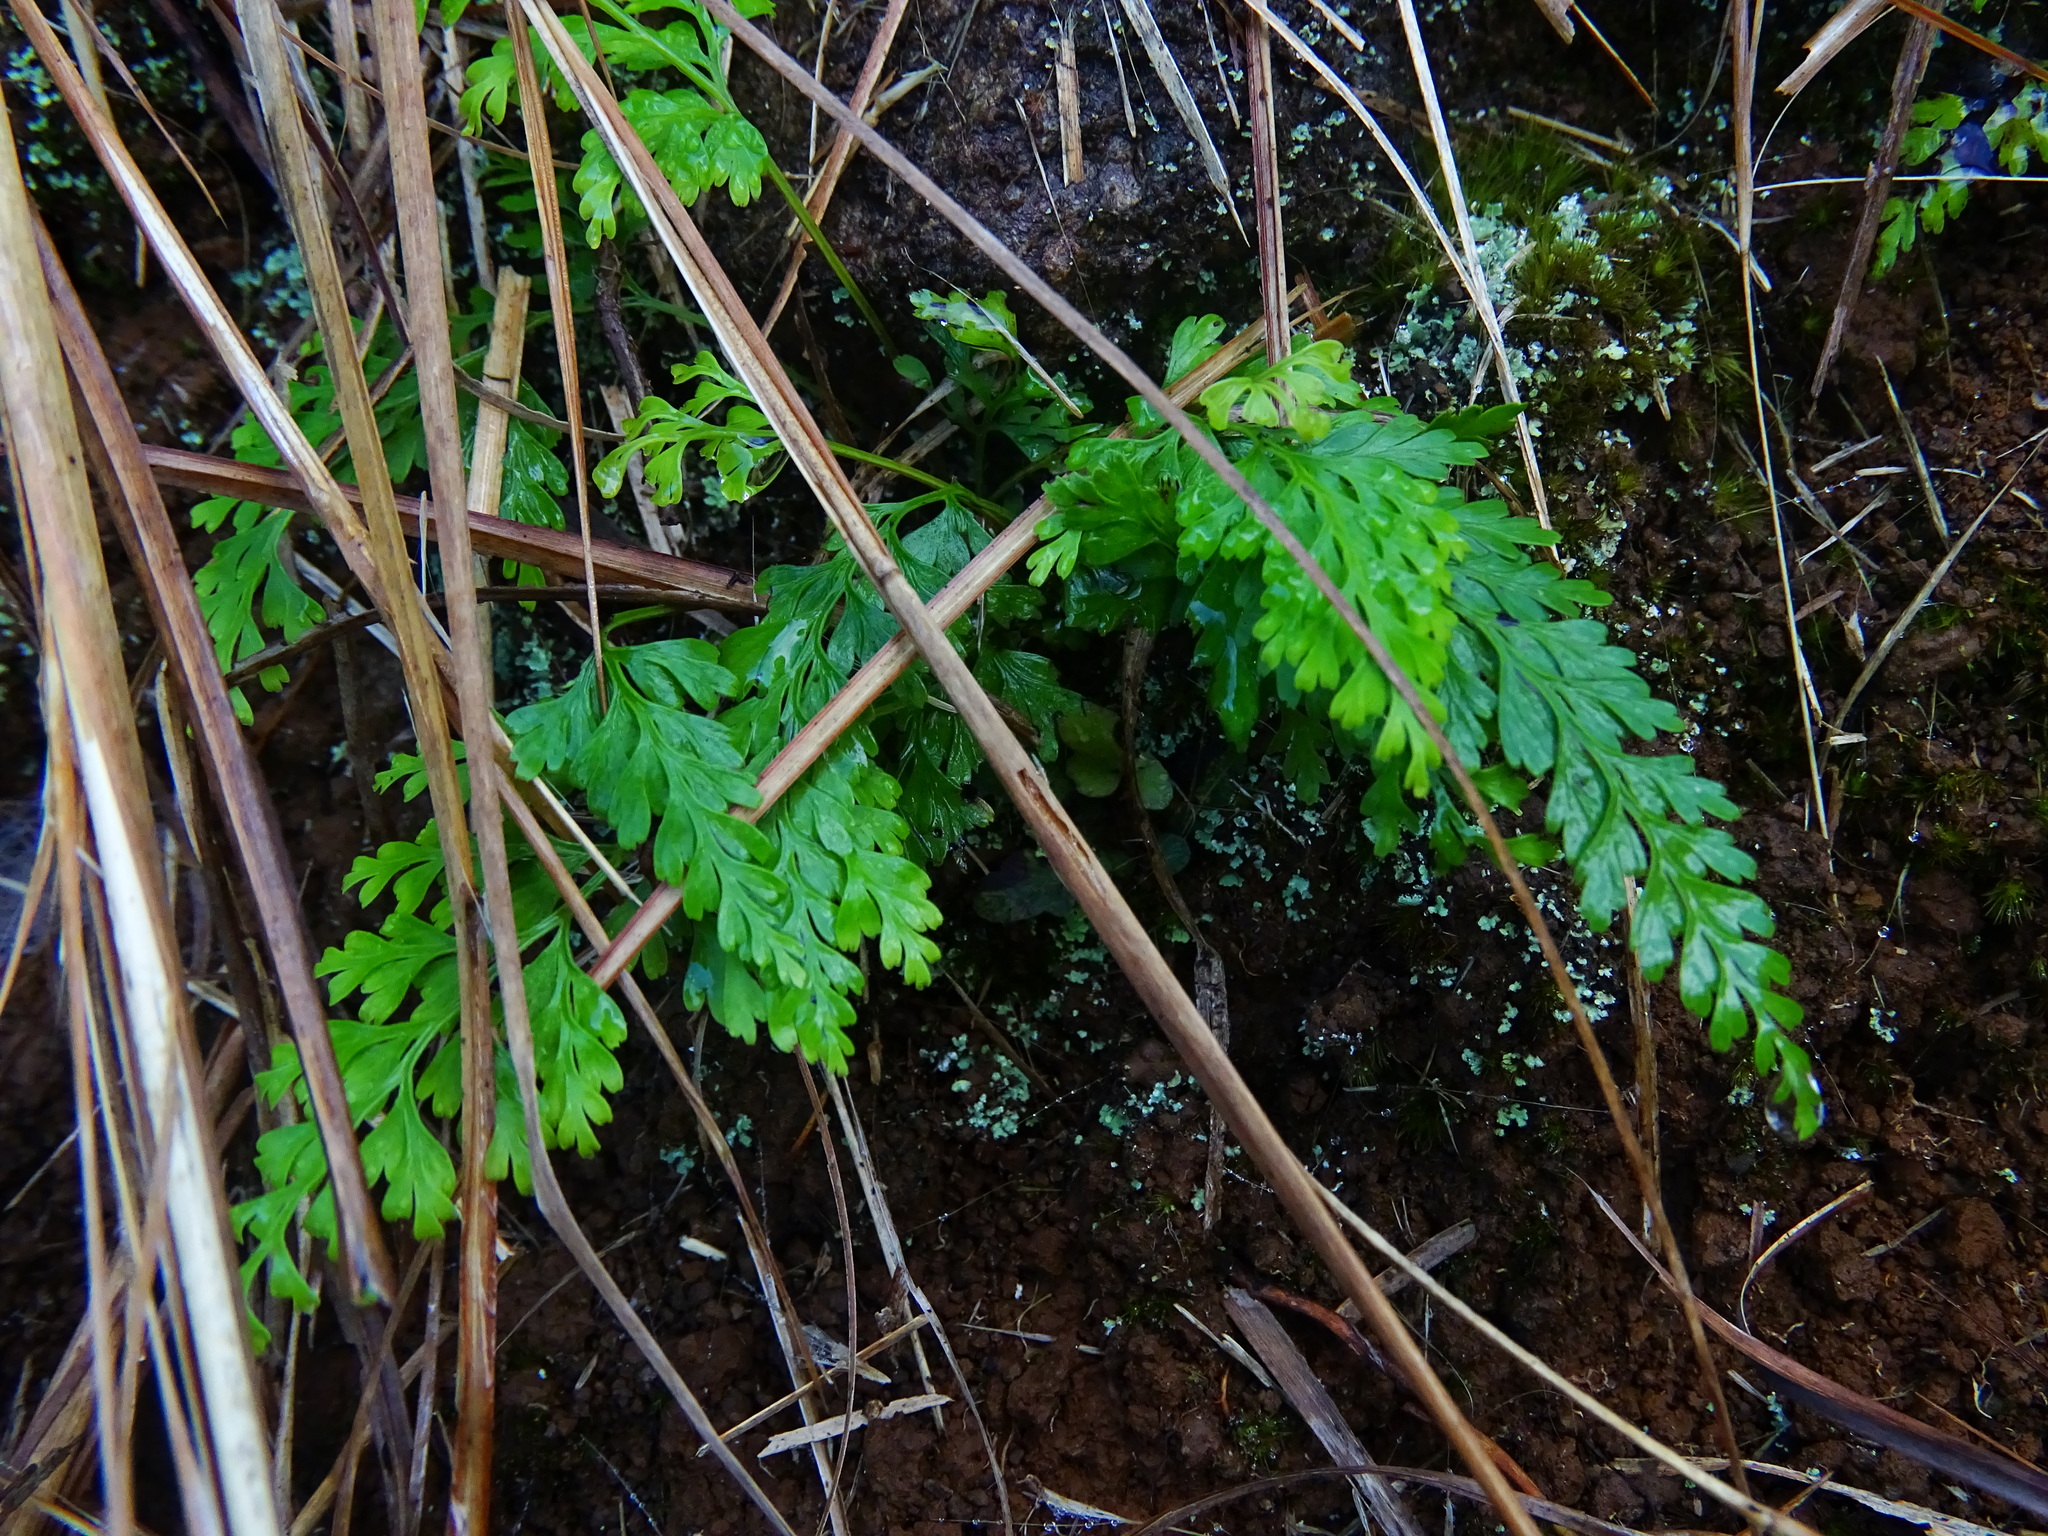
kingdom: Plantae
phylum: Tracheophyta
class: Polypodiopsida
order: Polypodiales
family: Lindsaeaceae
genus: Odontosoria
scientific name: Odontosoria chinensis
